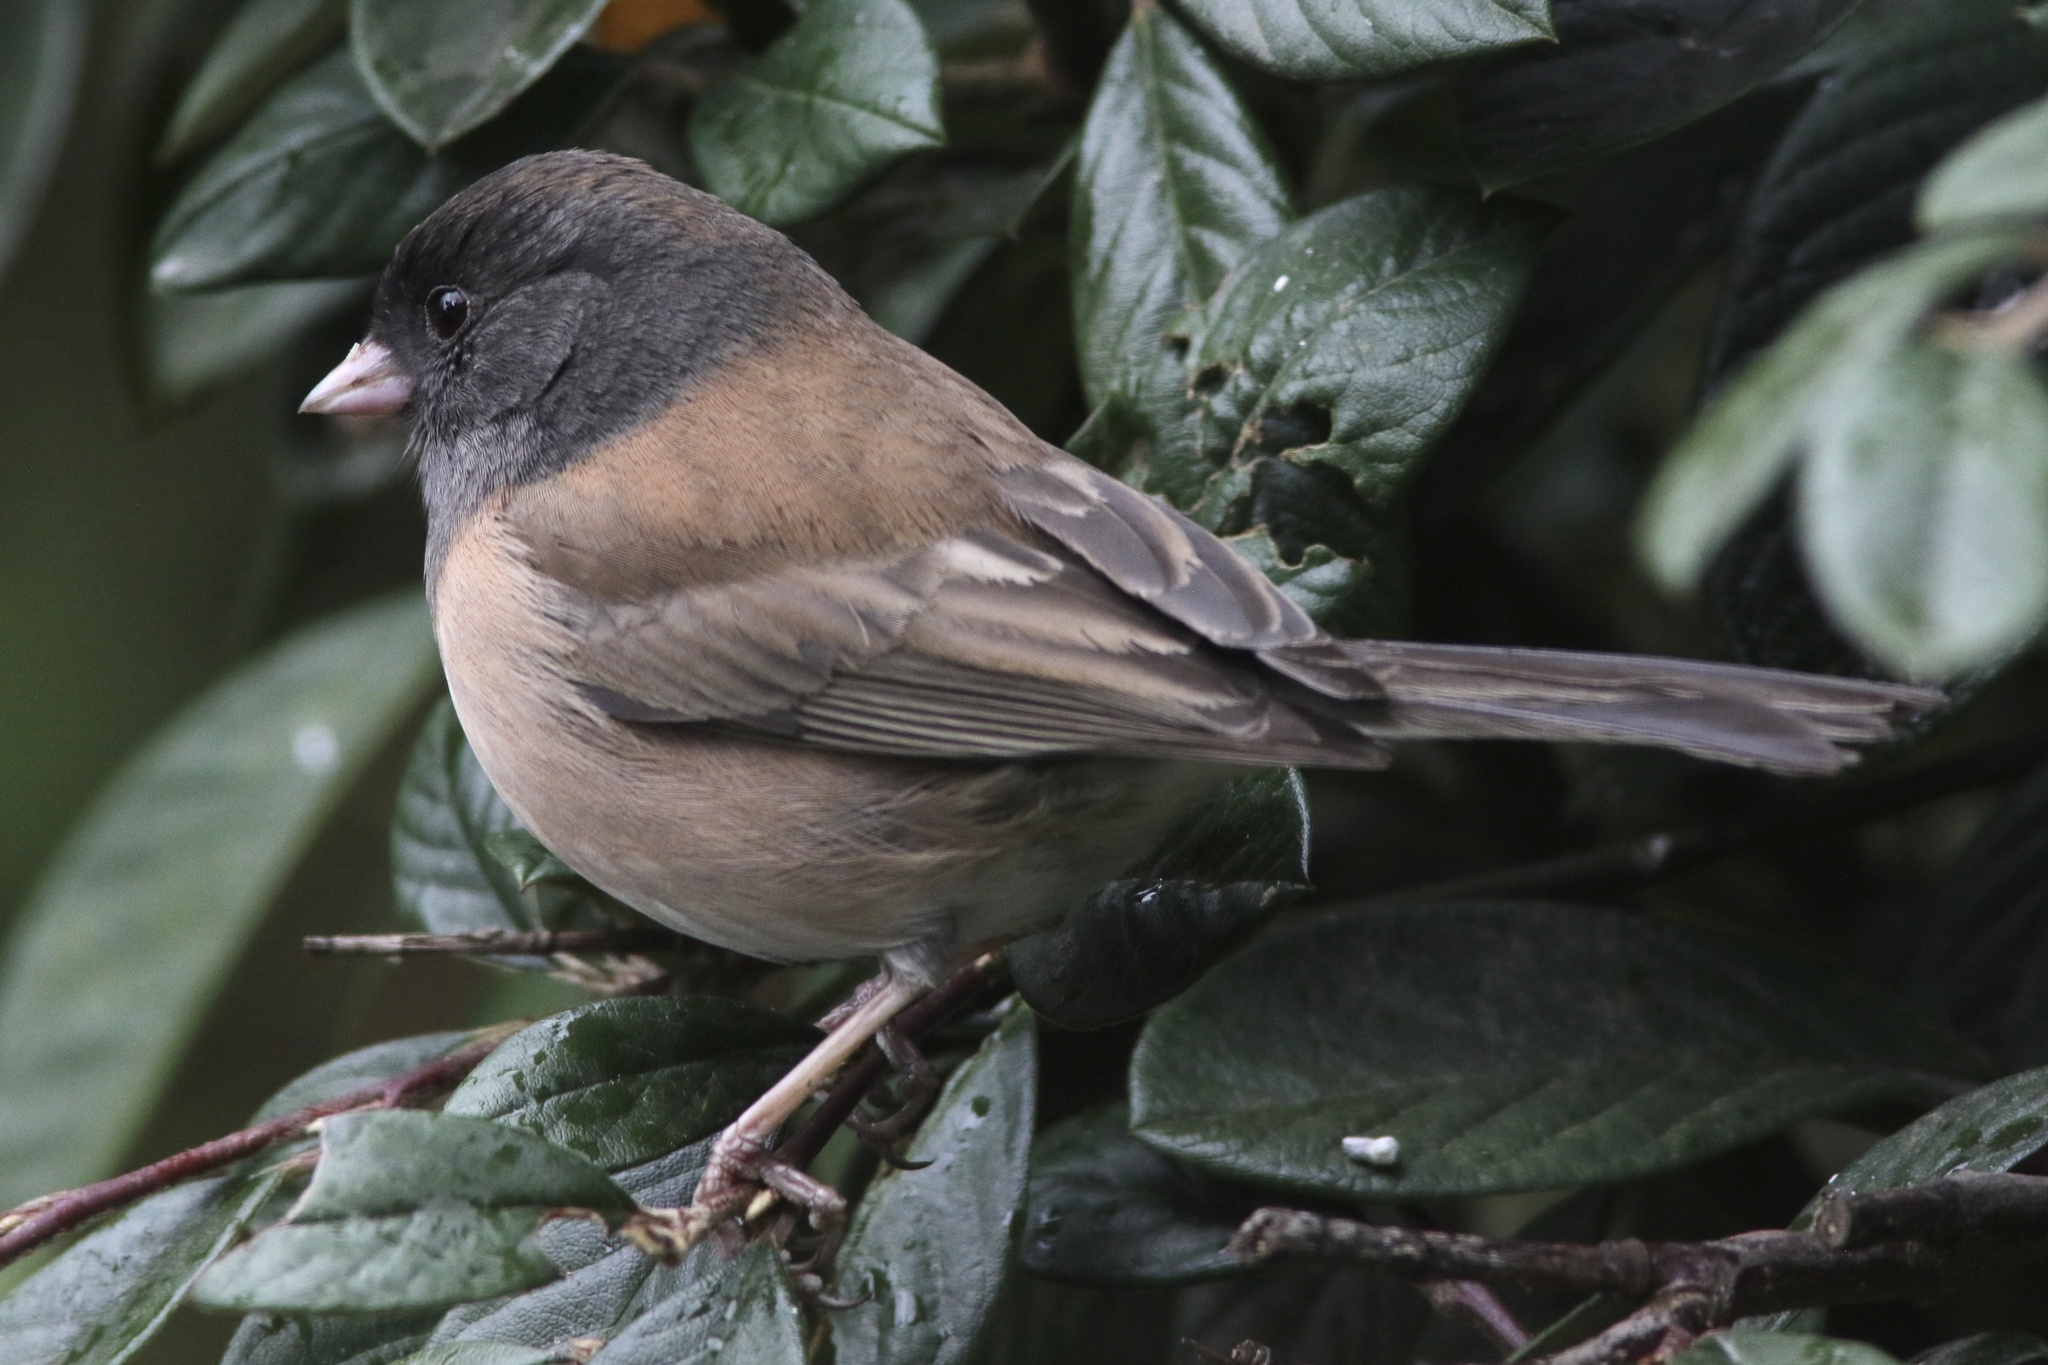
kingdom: Animalia
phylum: Chordata
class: Aves
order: Passeriformes
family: Passerellidae
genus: Junco
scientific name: Junco hyemalis
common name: Dark-eyed junco
